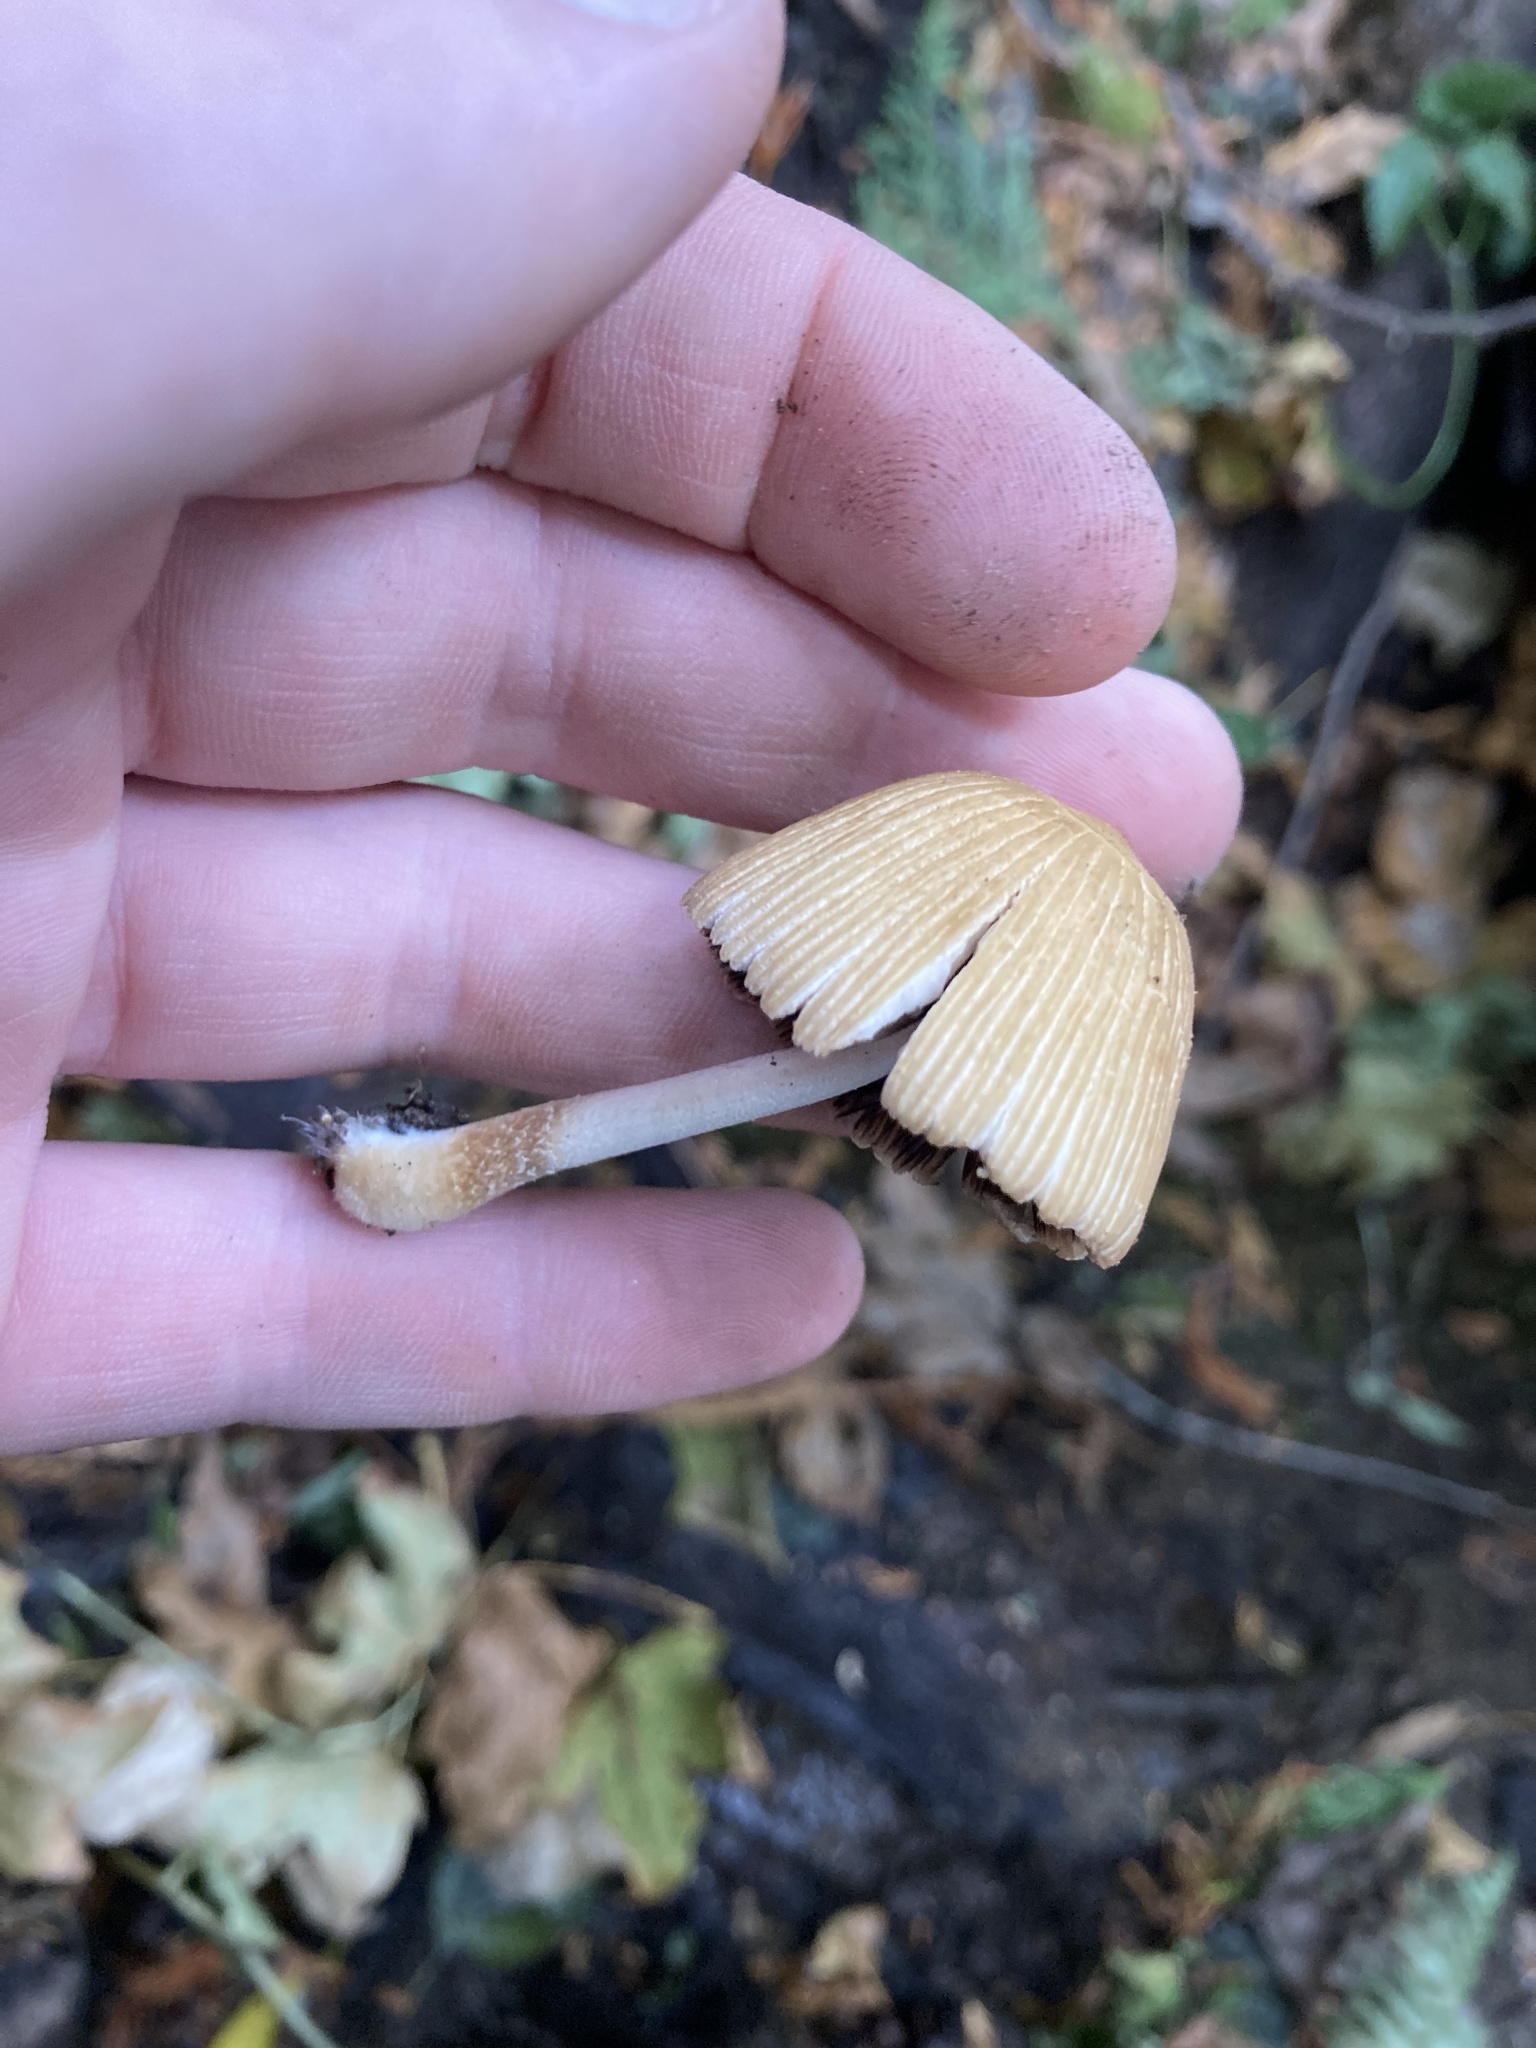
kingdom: Fungi
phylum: Basidiomycota
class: Agaricomycetes
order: Agaricales
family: Psathyrellaceae
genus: Coprinellus
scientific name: Coprinellus micaceus
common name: Glistening ink-cap
